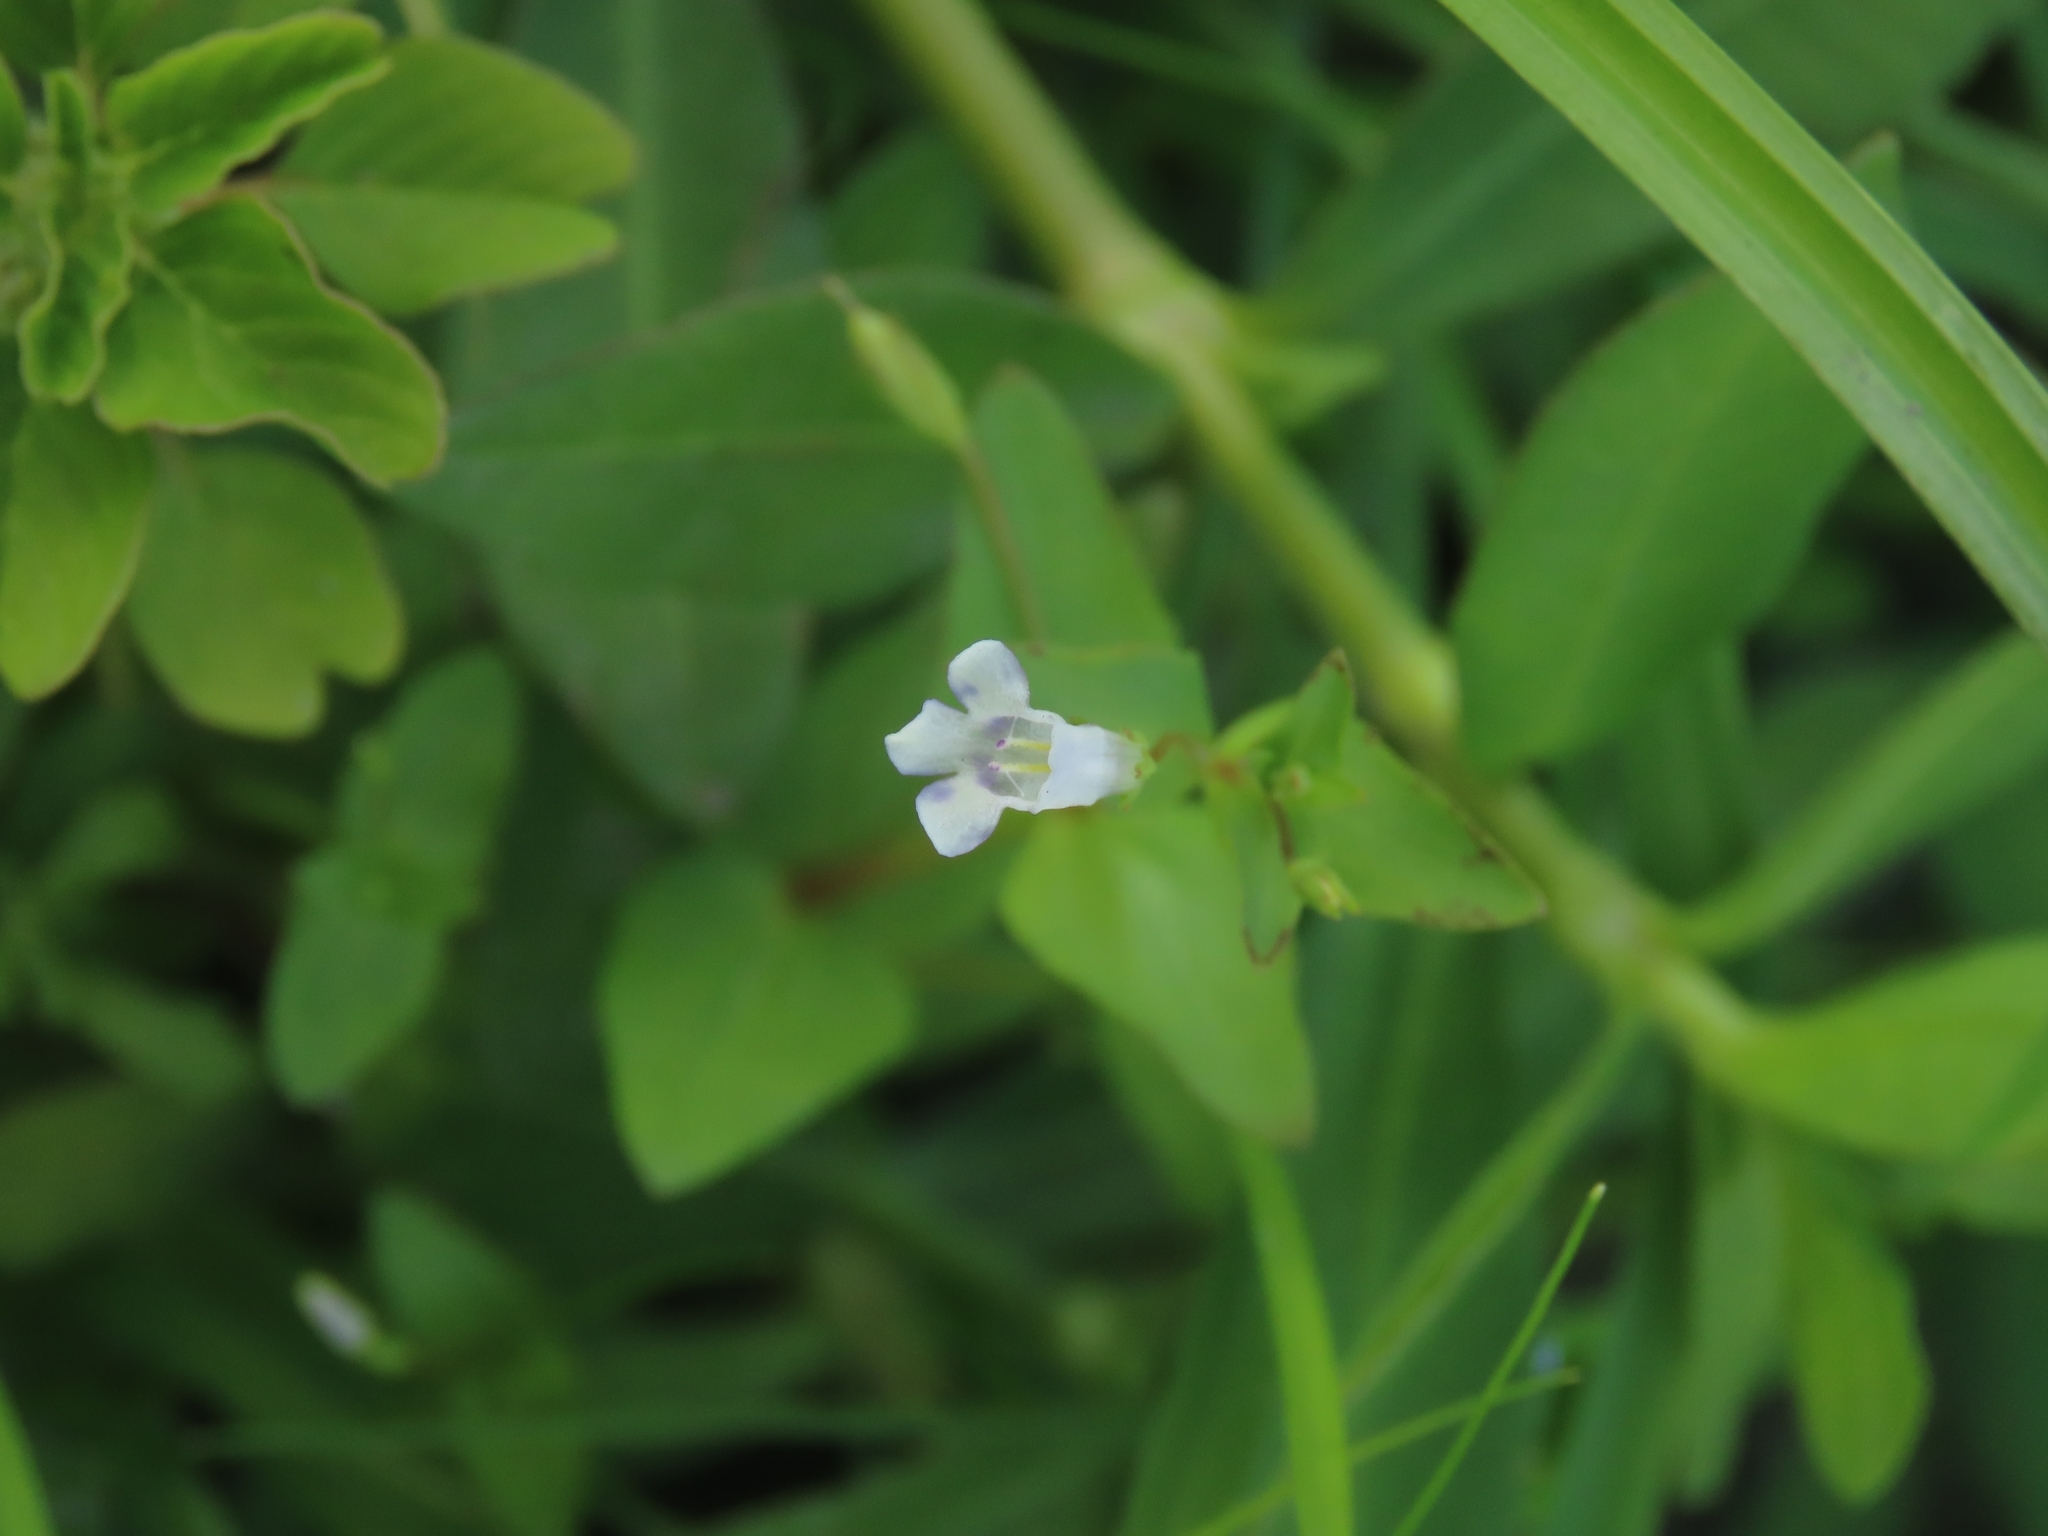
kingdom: Plantae
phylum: Tracheophyta
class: Magnoliopsida
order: Lamiales
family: Linderniaceae
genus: Lindernia
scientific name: Lindernia dubia
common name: Annual false pimpernel
